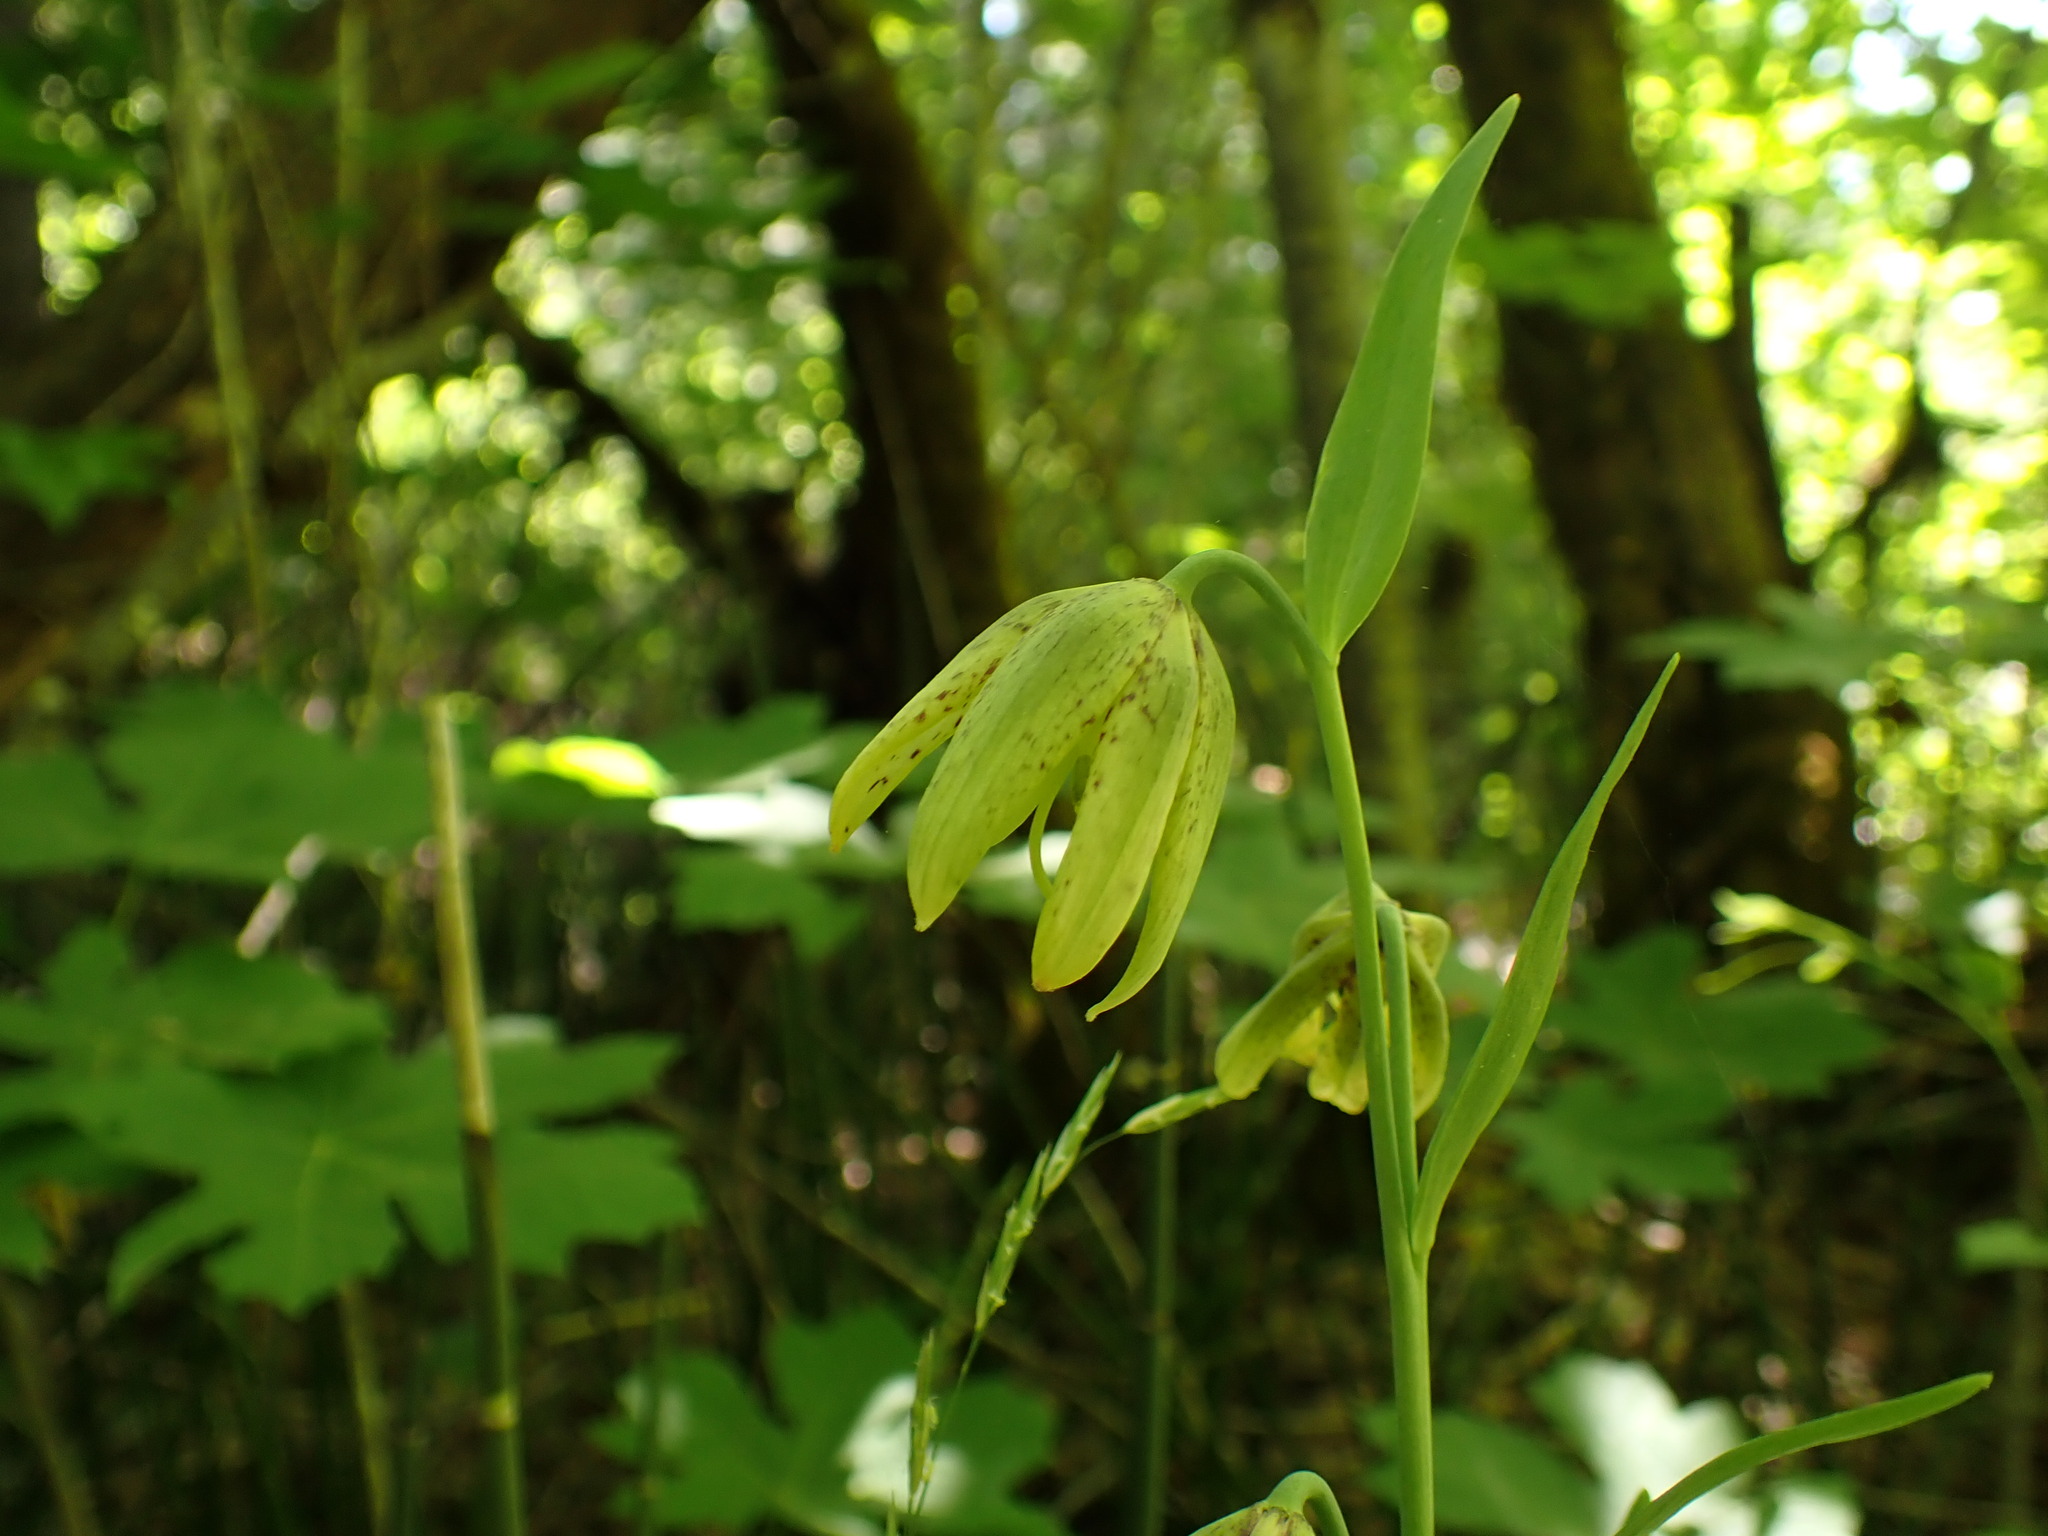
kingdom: Plantae
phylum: Tracheophyta
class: Liliopsida
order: Liliales
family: Liliaceae
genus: Fritillaria
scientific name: Fritillaria affinis
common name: Ojai fritillary
